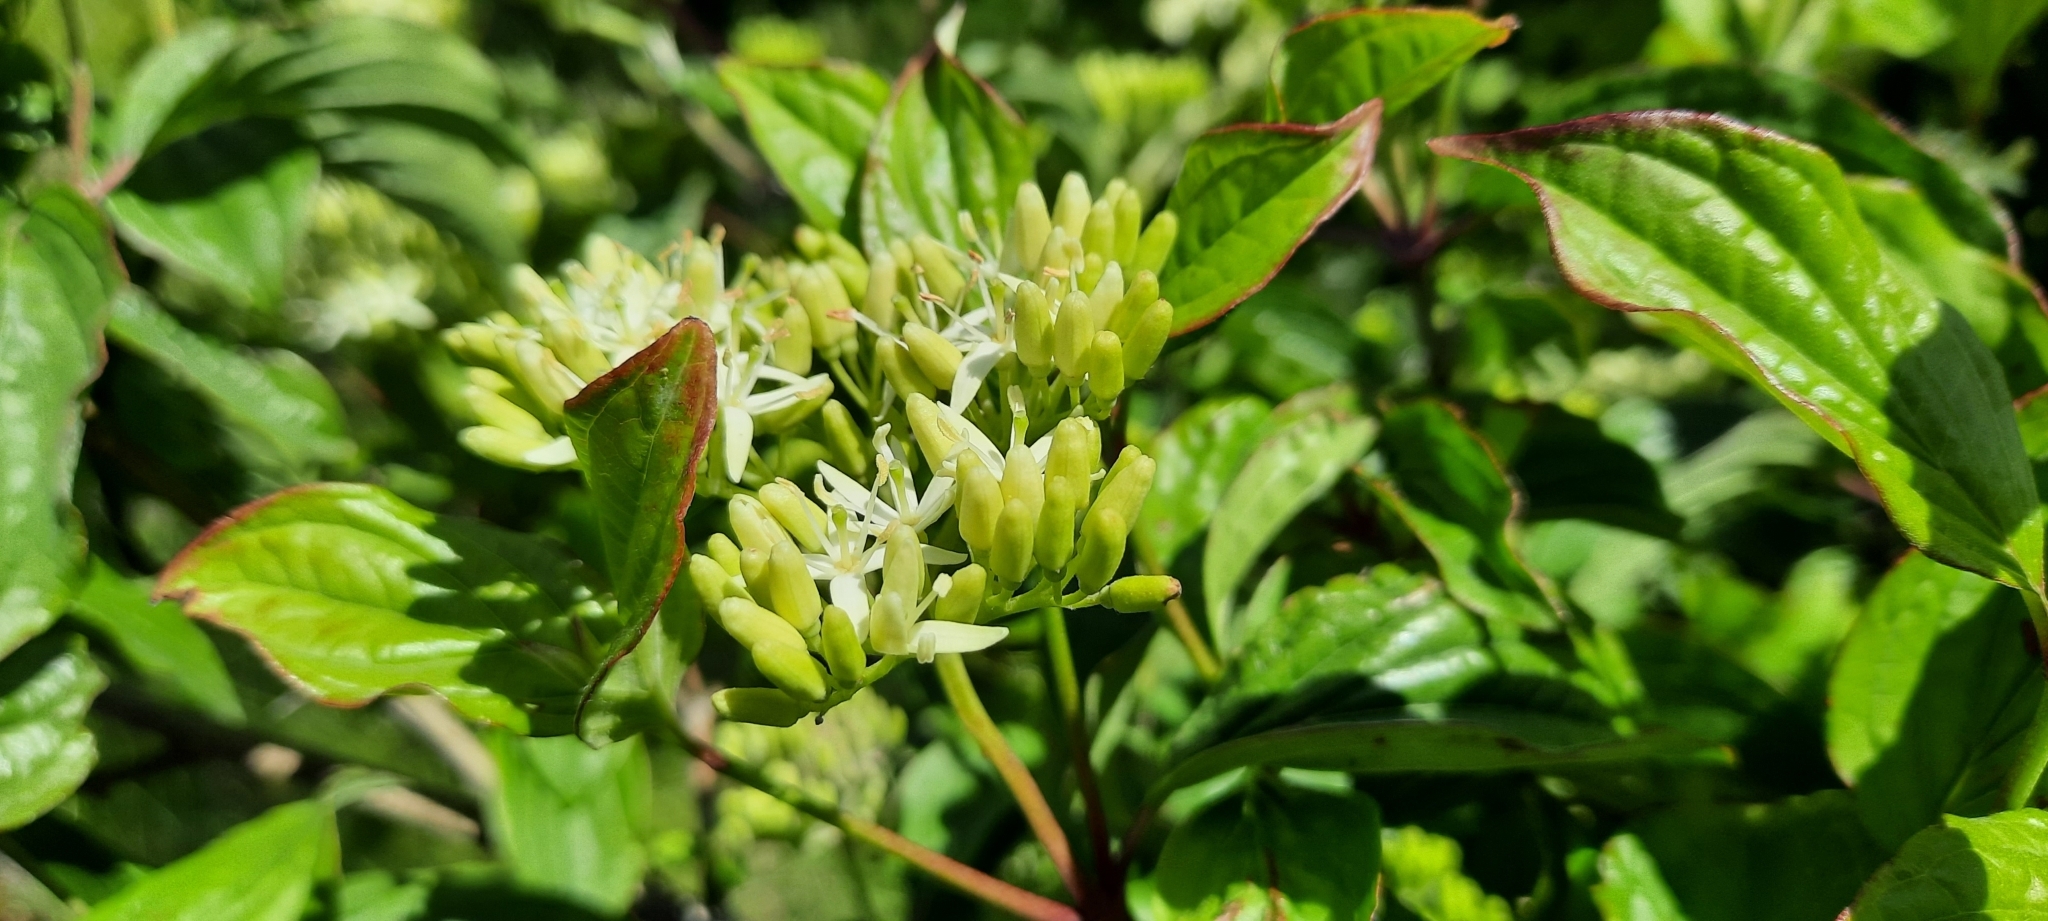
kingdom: Plantae
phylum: Tracheophyta
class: Magnoliopsida
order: Cornales
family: Cornaceae
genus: Cornus
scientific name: Cornus sanguinea
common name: Dogwood
